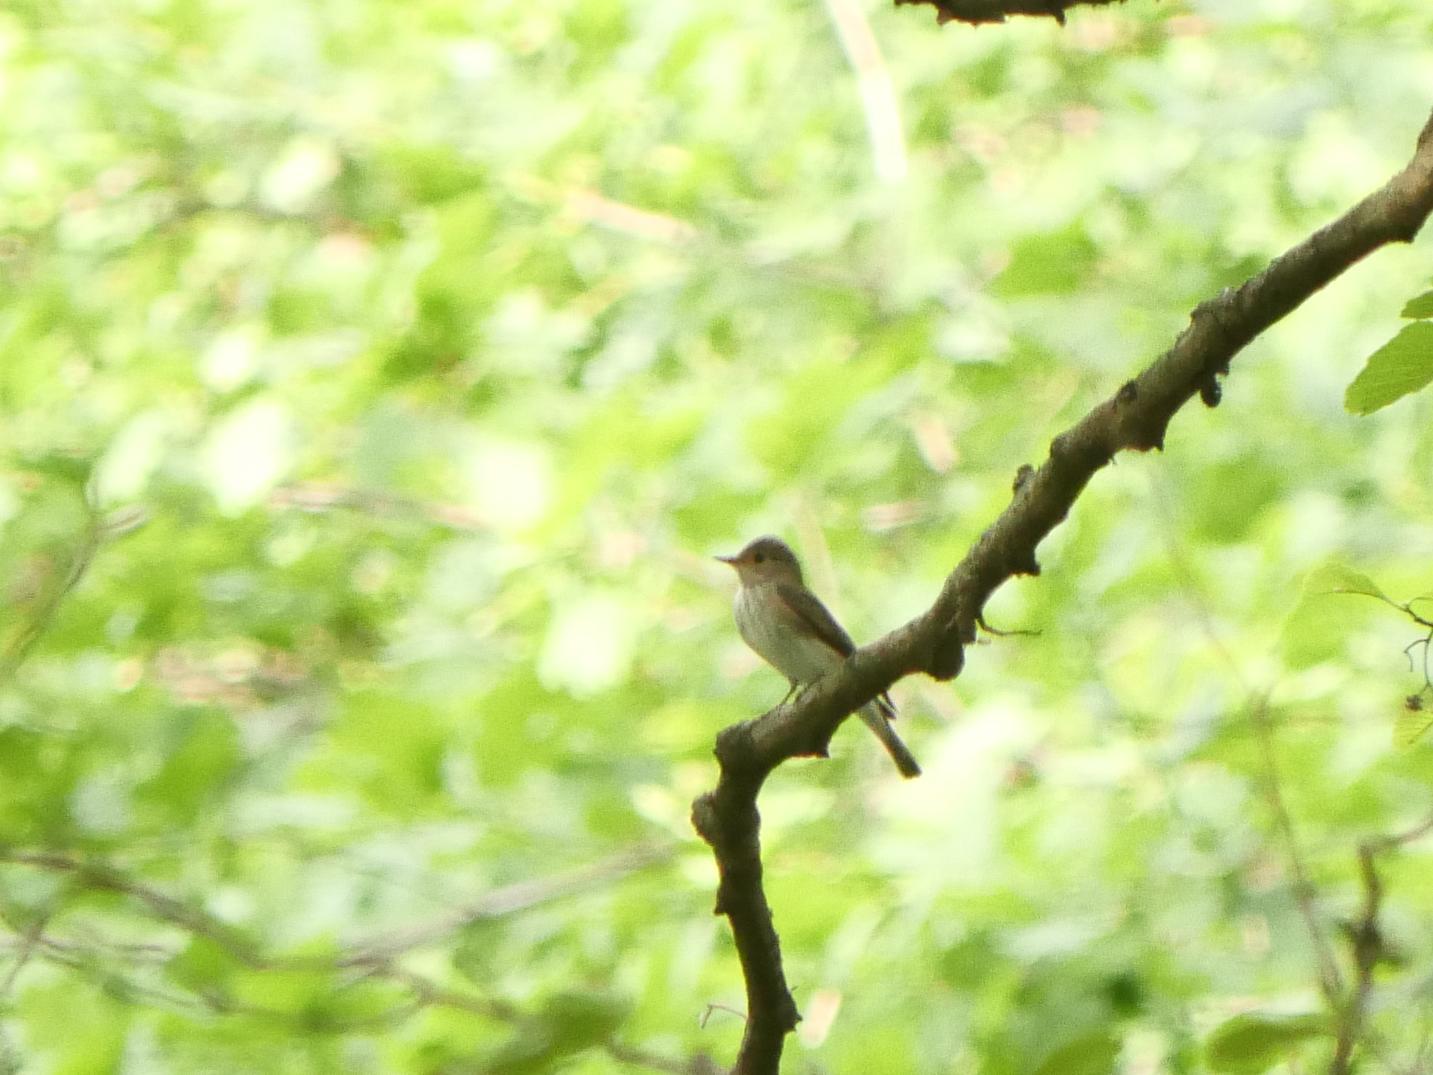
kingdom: Animalia
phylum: Chordata
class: Aves
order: Passeriformes
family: Muscicapidae
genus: Muscicapa
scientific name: Muscicapa striata
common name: Spotted flycatcher
